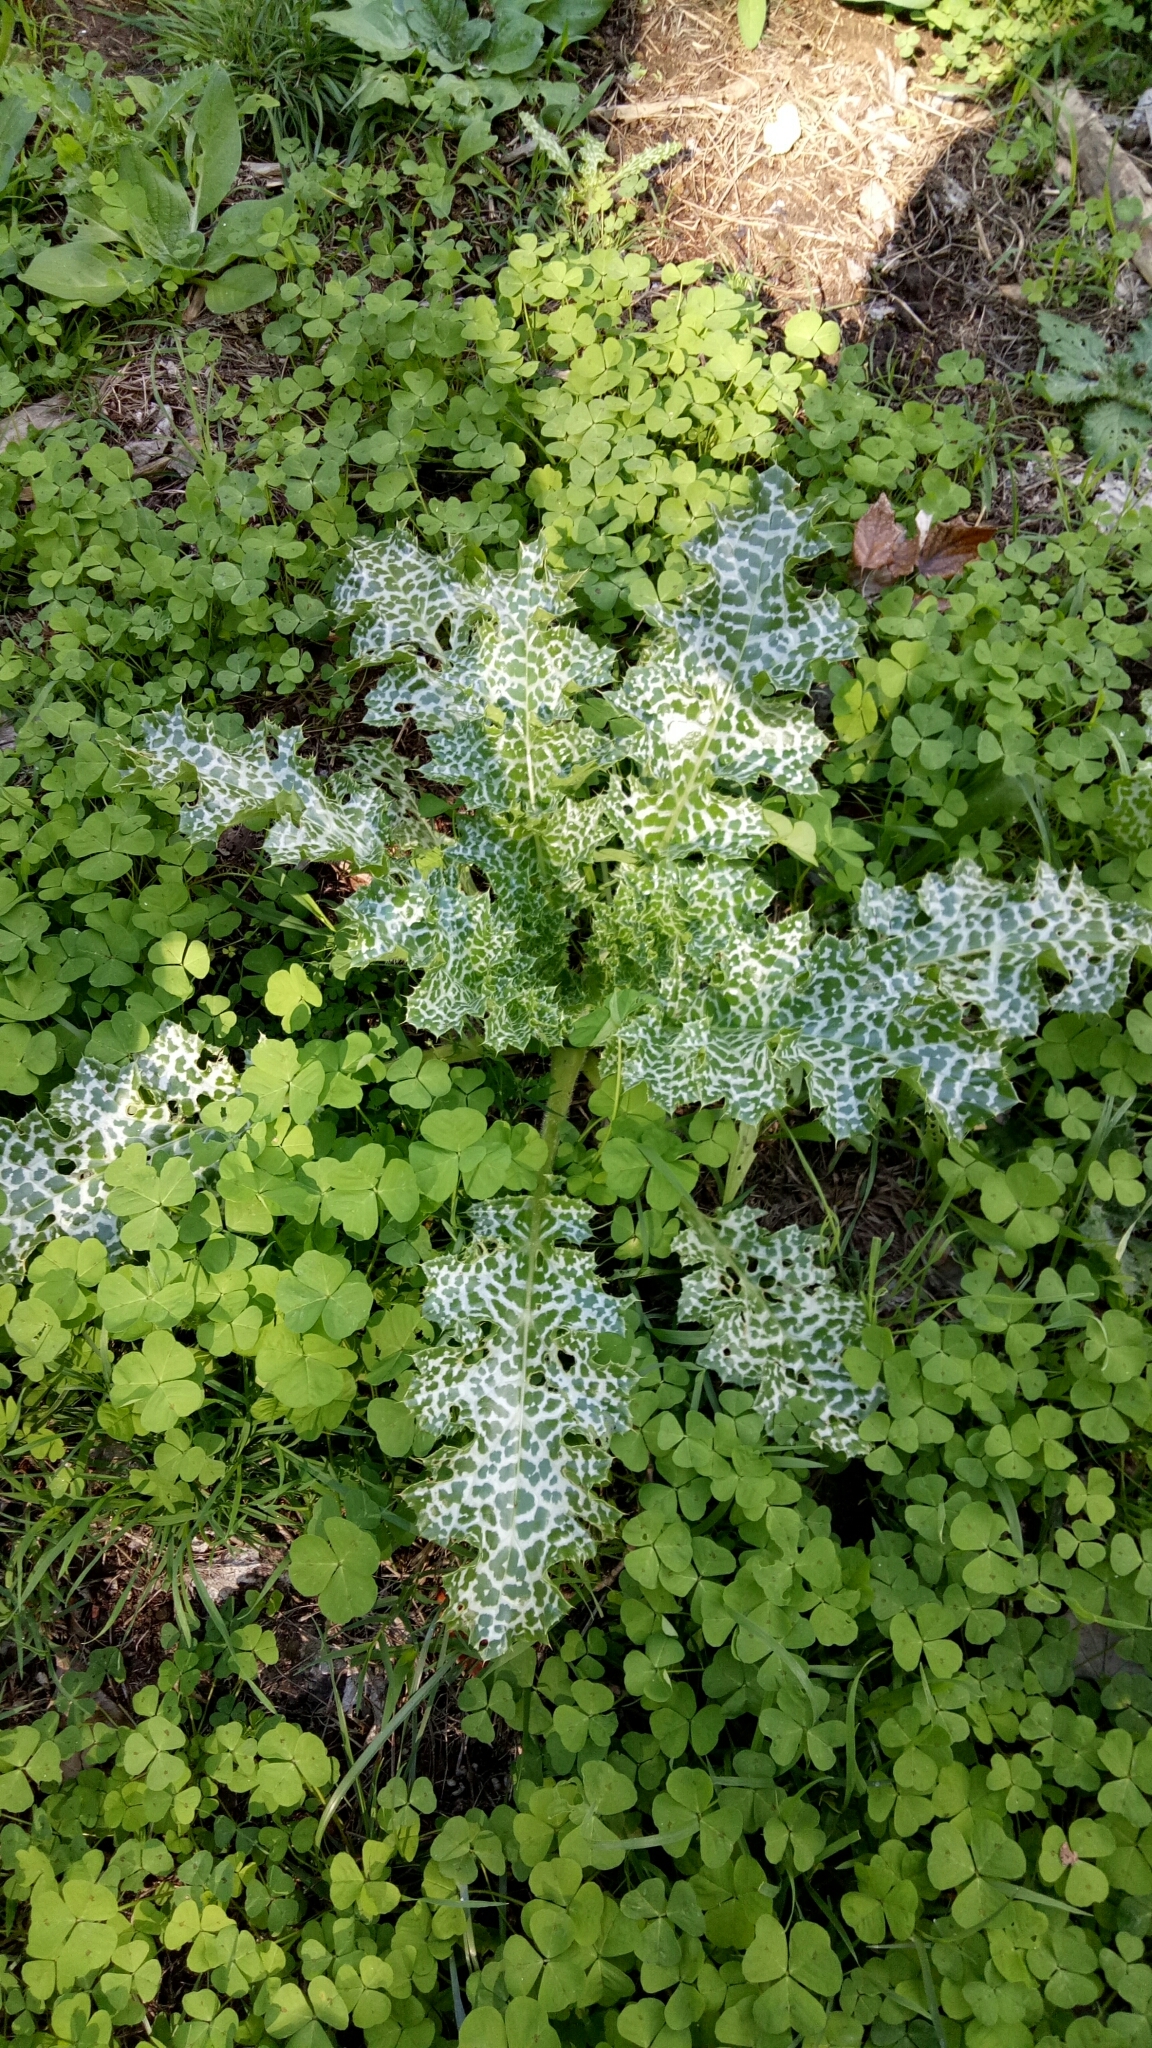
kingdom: Plantae
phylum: Tracheophyta
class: Magnoliopsida
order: Asterales
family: Asteraceae
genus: Silybum
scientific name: Silybum marianum
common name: Milk thistle
